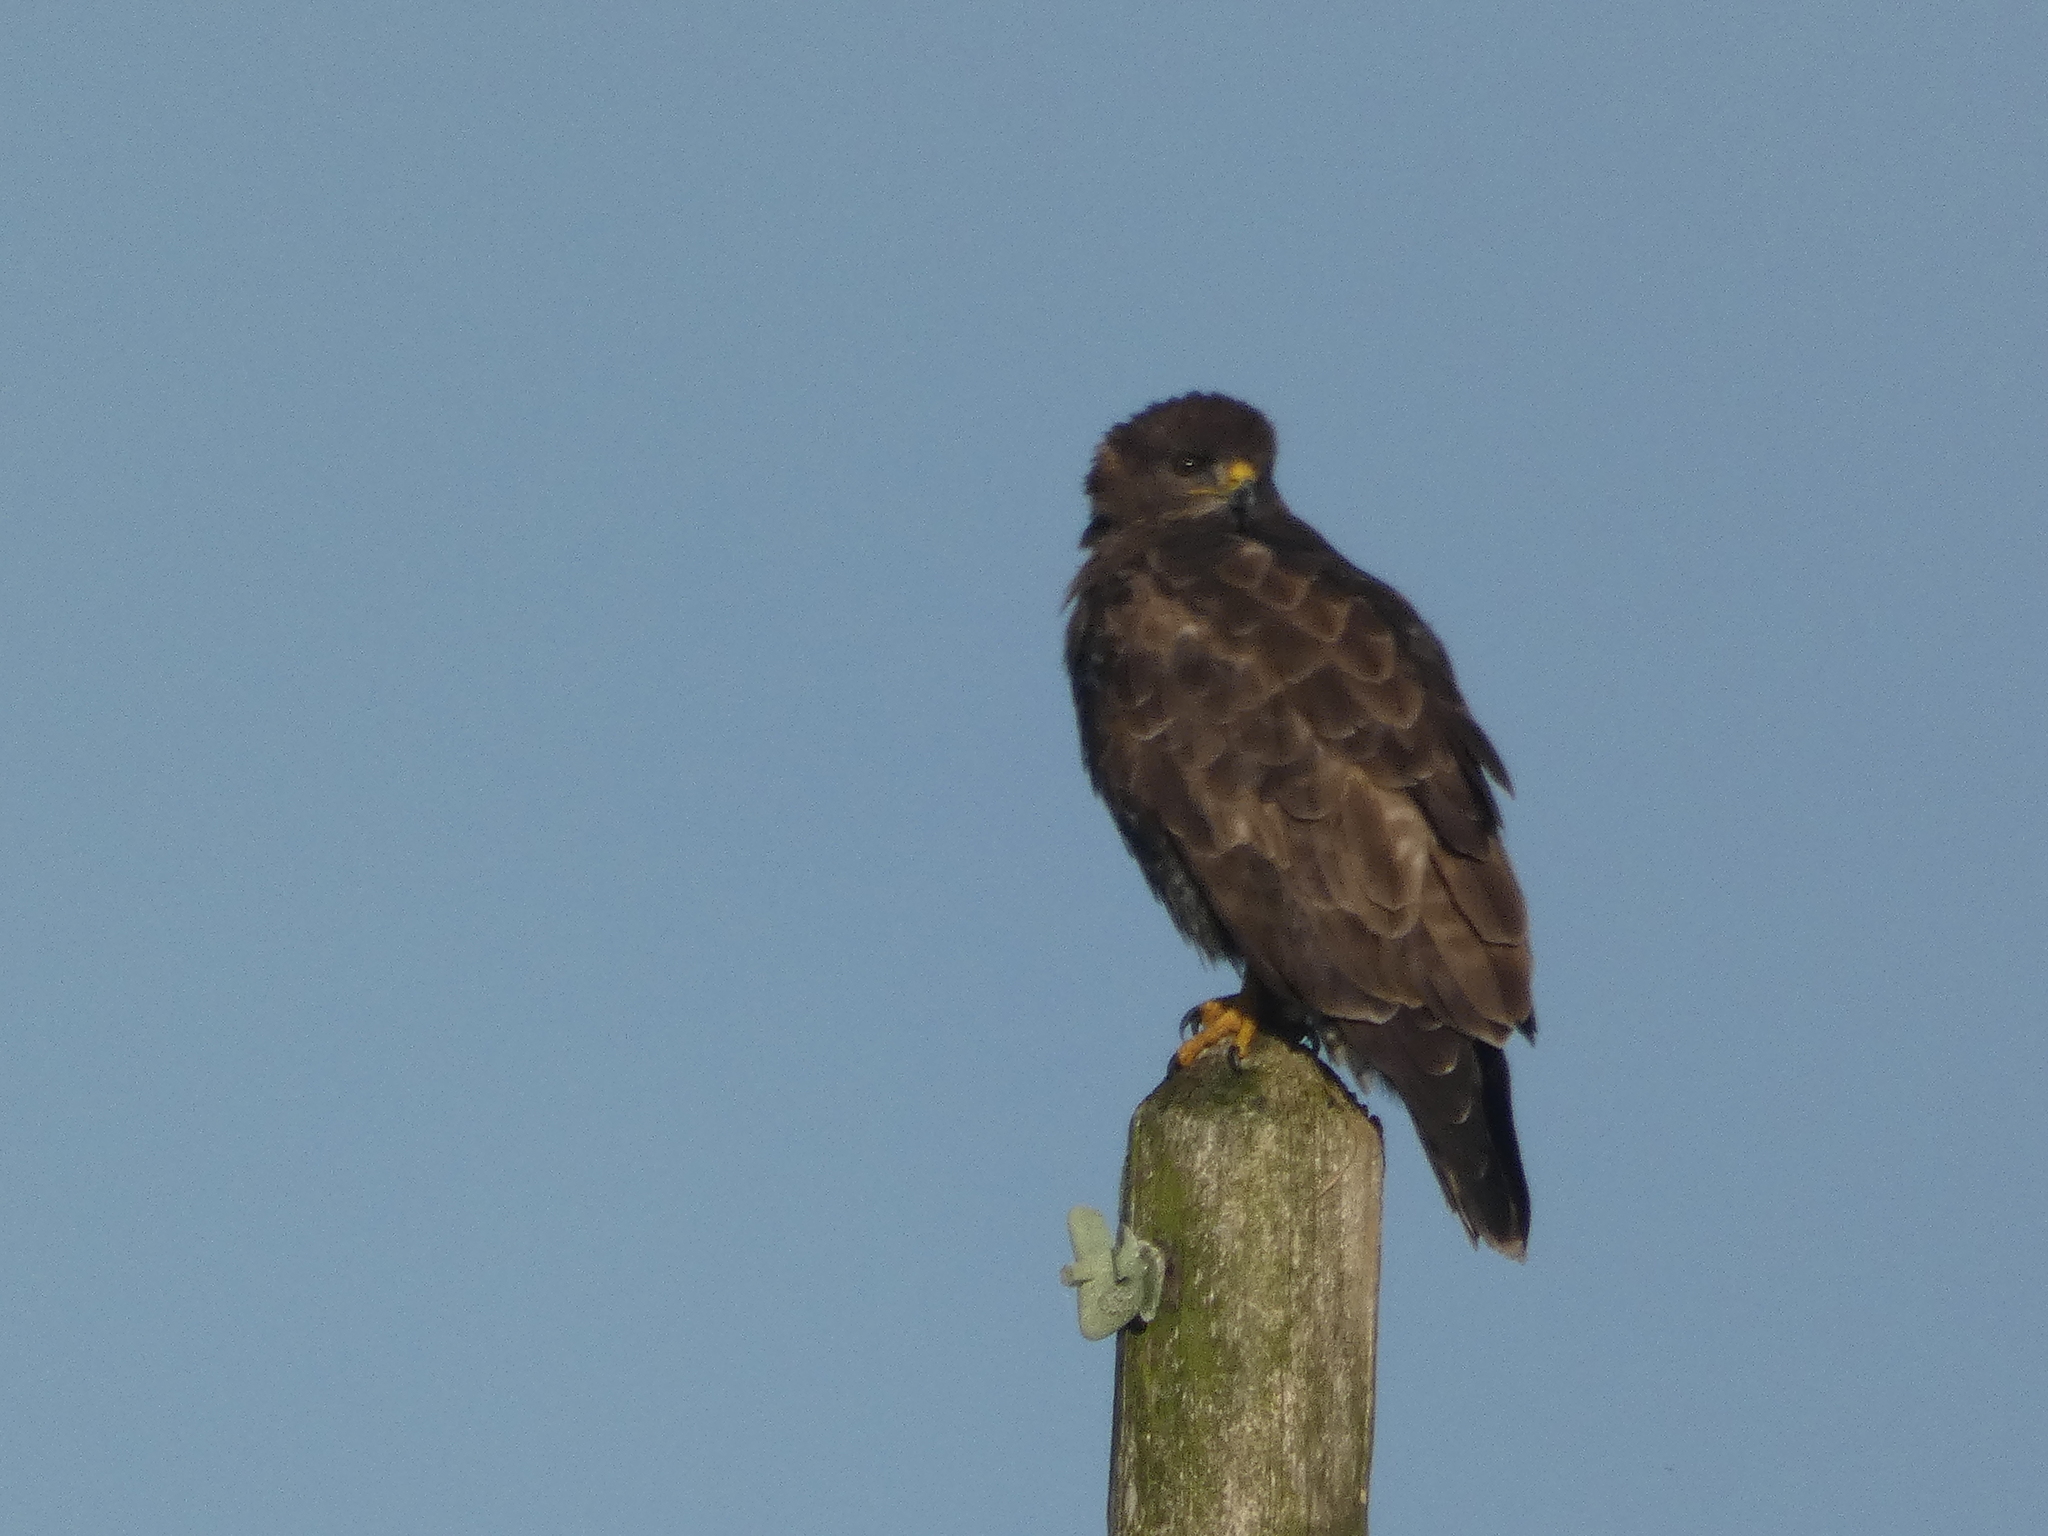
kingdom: Animalia
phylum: Chordata
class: Aves
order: Accipitriformes
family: Accipitridae
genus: Buteo
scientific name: Buteo buteo
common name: Common buzzard
